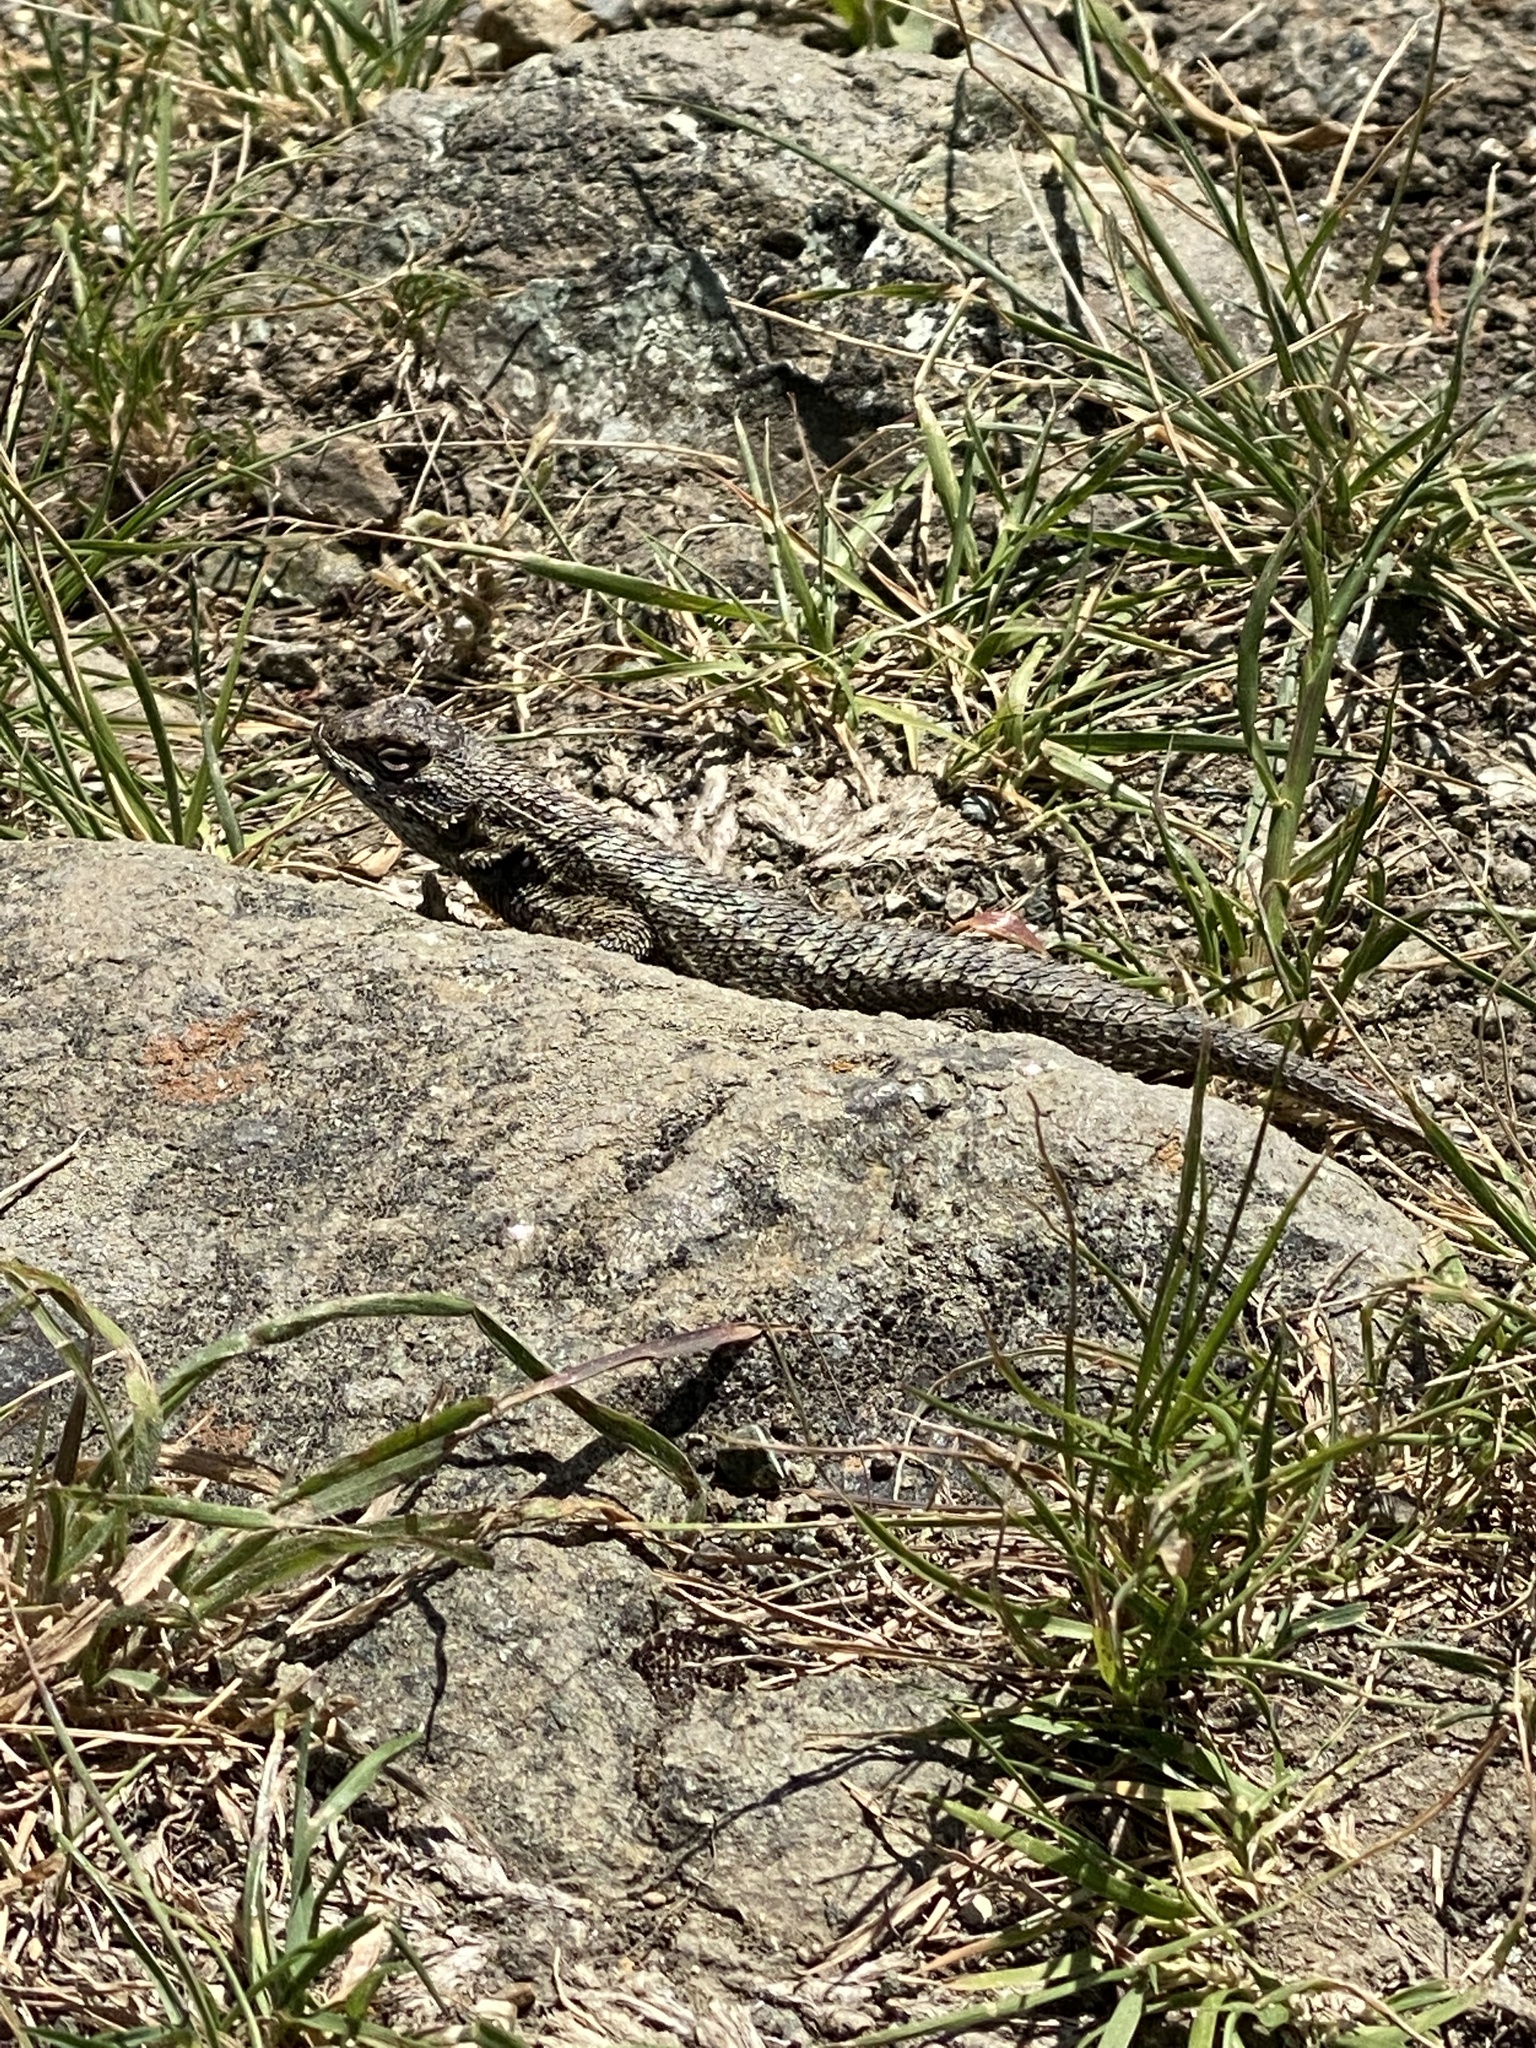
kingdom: Animalia
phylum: Chordata
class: Squamata
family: Phrynosomatidae
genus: Sceloporus
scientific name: Sceloporus occidentalis
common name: Western fence lizard
